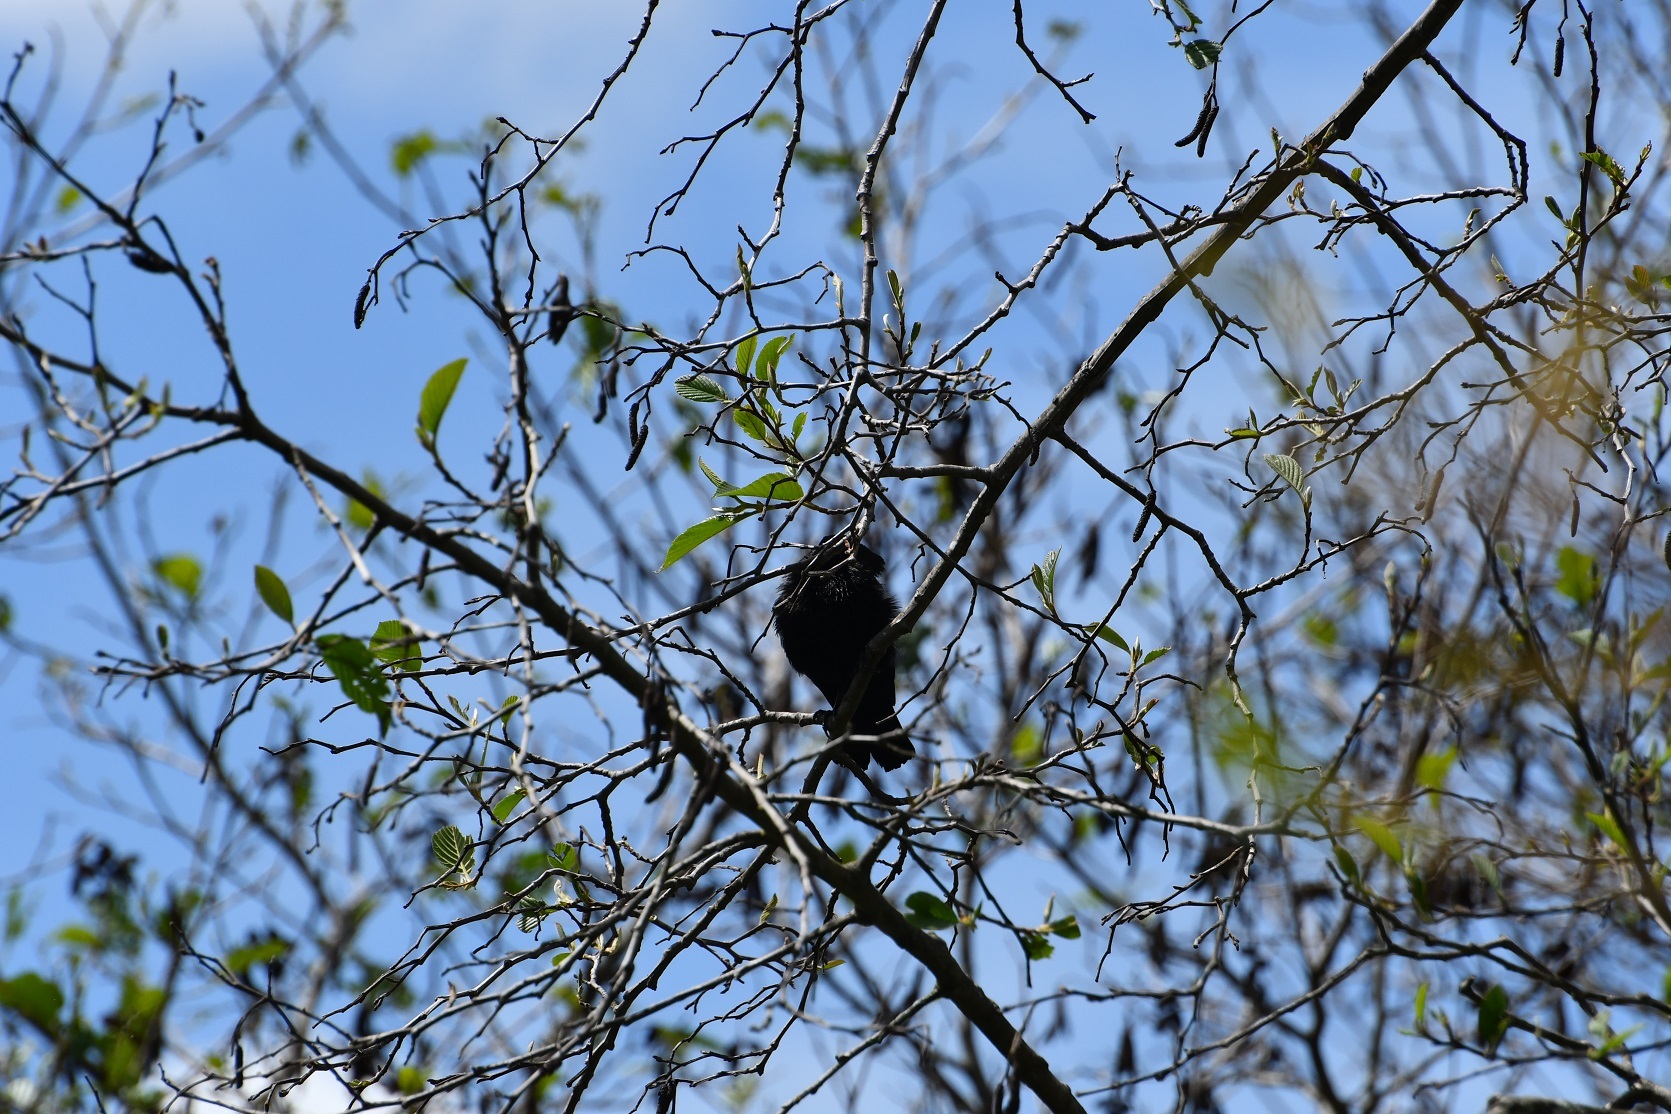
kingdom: Animalia
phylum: Chordata
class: Aves
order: Passeriformes
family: Icteridae
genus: Molothrus
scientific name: Molothrus aeneus
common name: Bronzed cowbird
